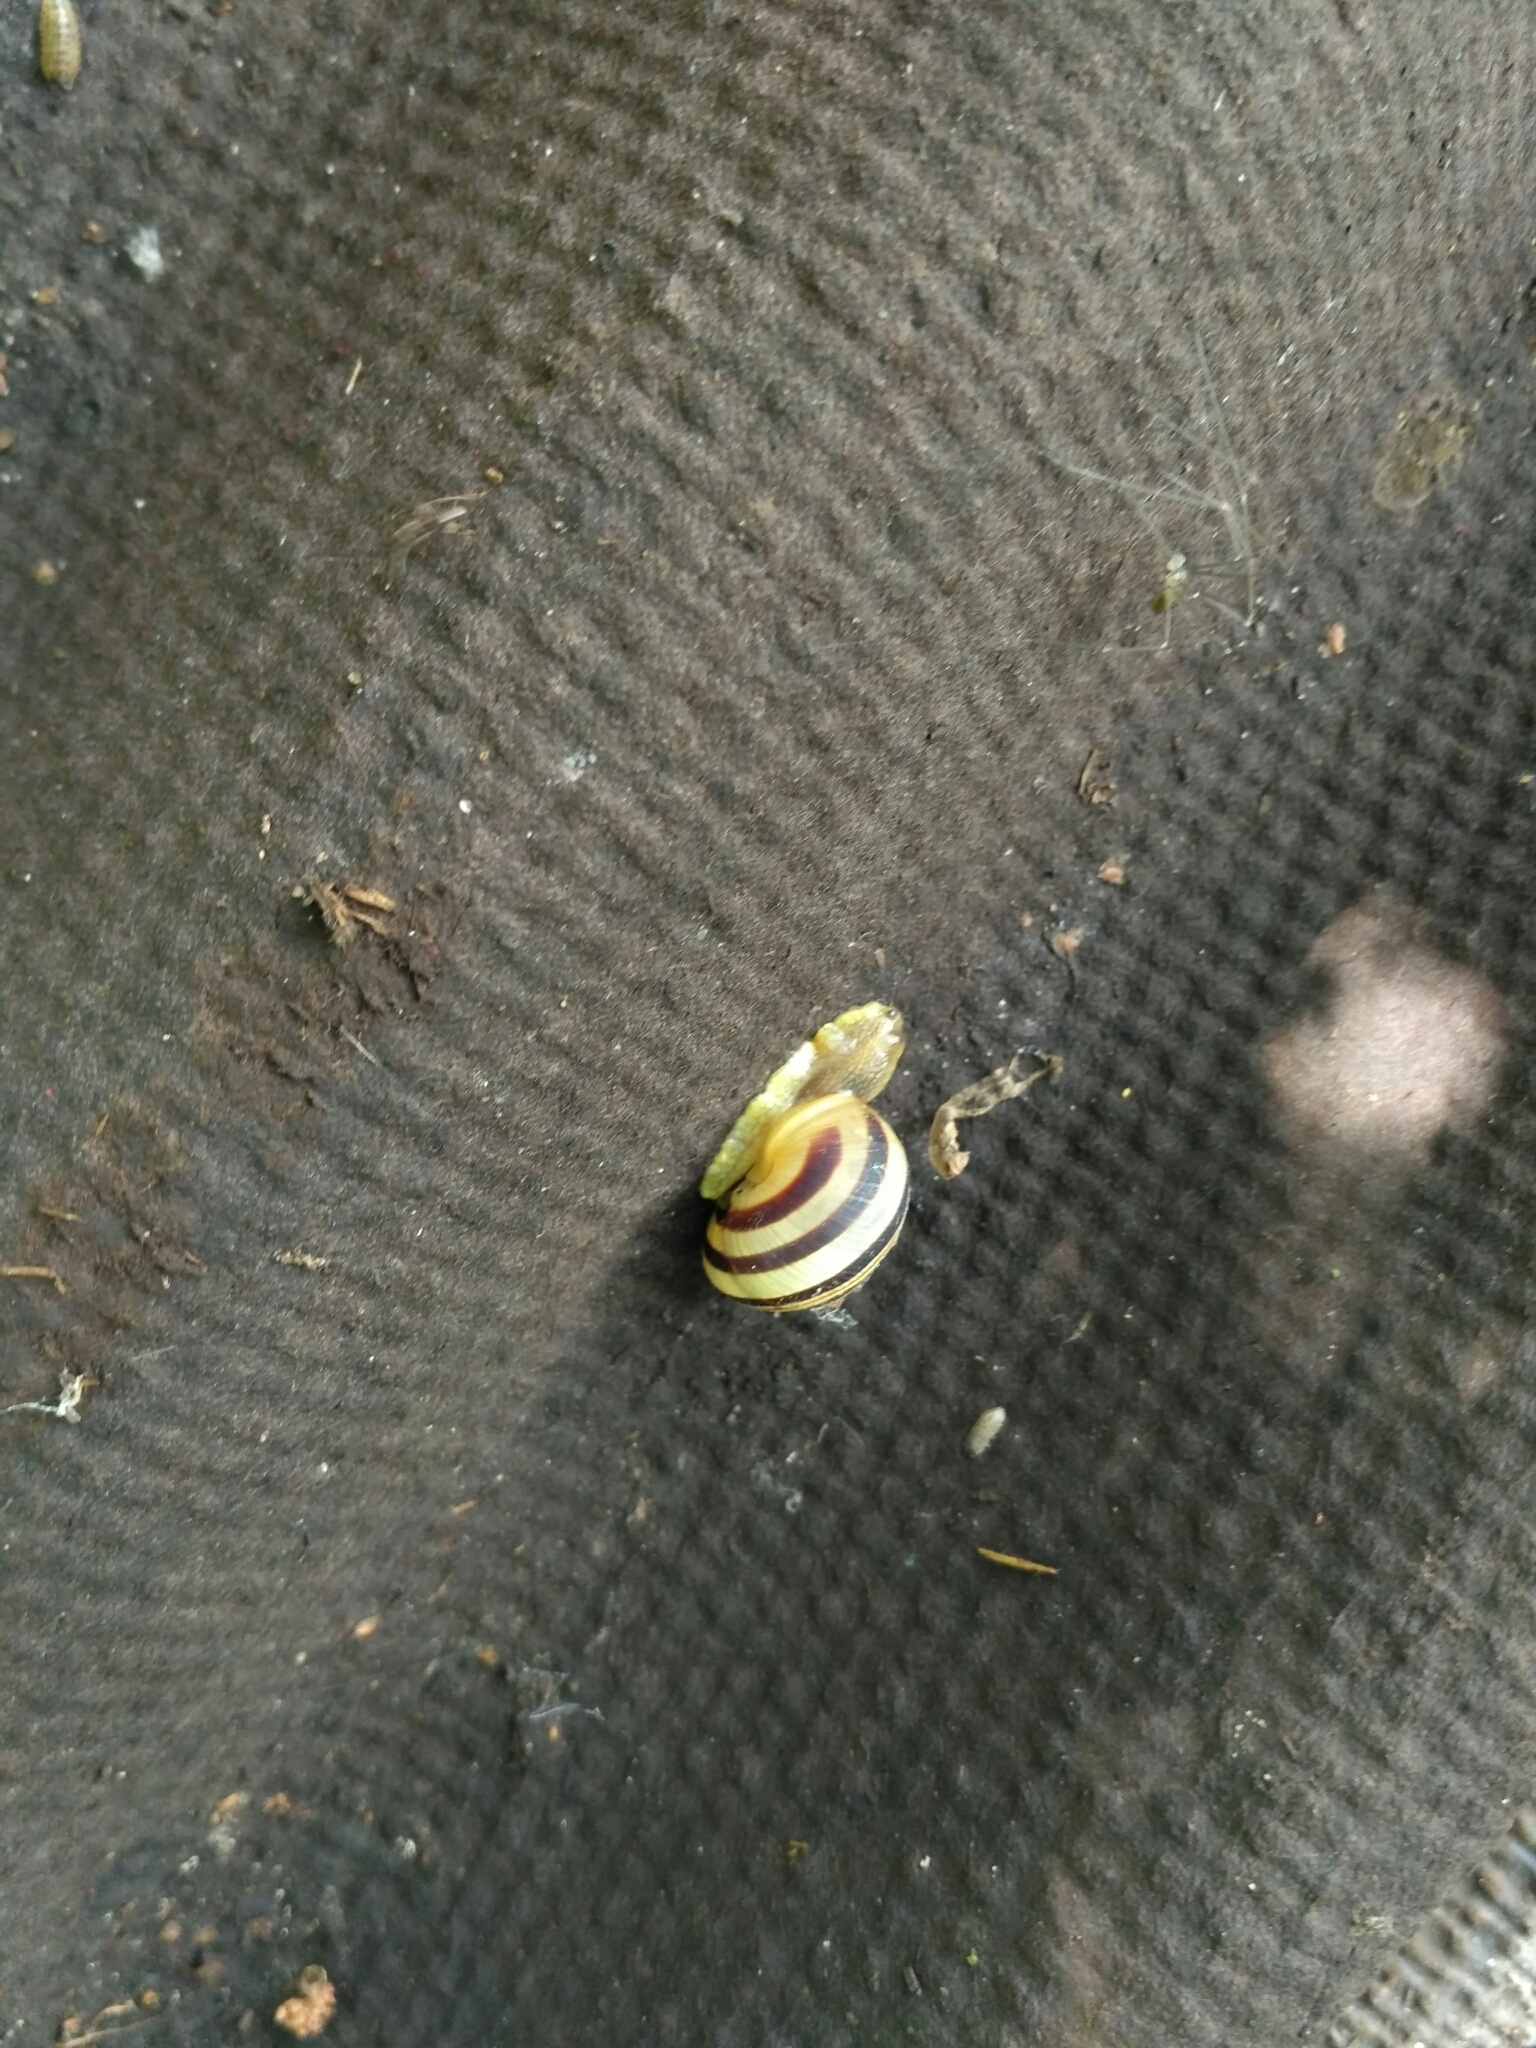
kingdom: Animalia
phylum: Mollusca
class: Gastropoda
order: Stylommatophora
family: Helicidae
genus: Caucasotachea
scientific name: Caucasotachea vindobonensis
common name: European helicid land snail
